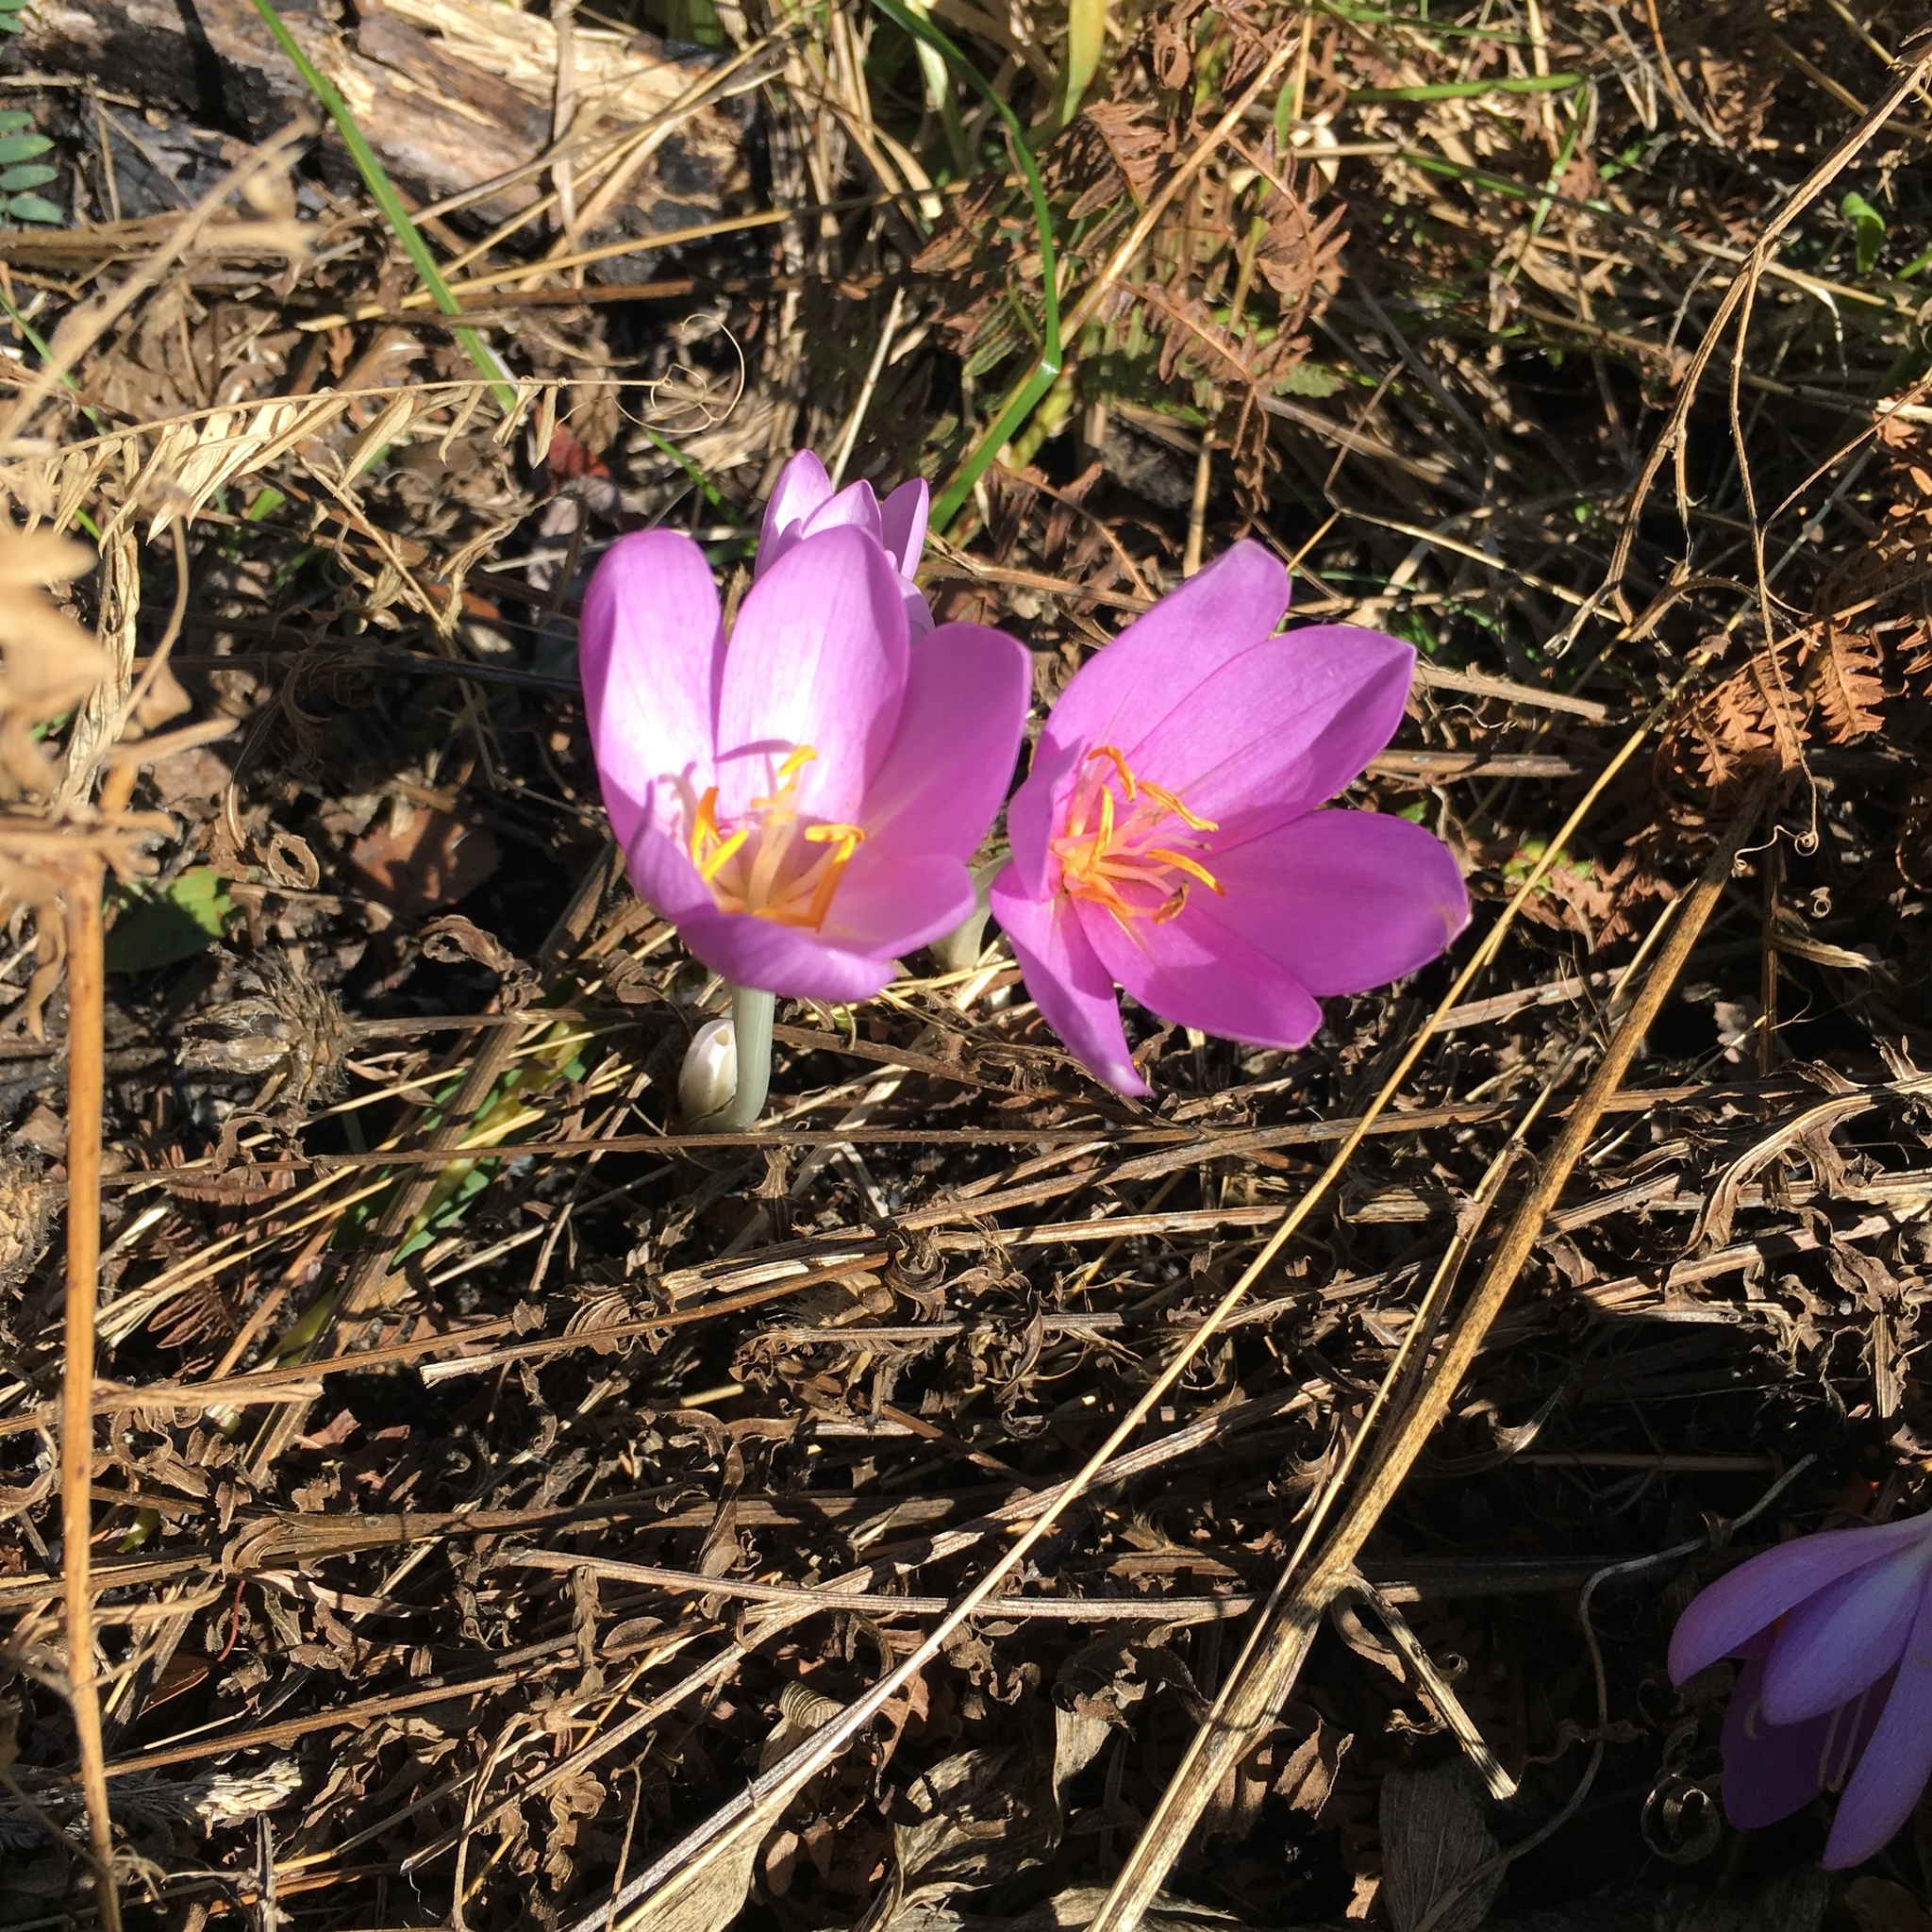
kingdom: Plantae
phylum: Tracheophyta
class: Liliopsida
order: Liliales
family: Colchicaceae
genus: Colchicum
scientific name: Colchicum autumnale
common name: Autumn crocus
